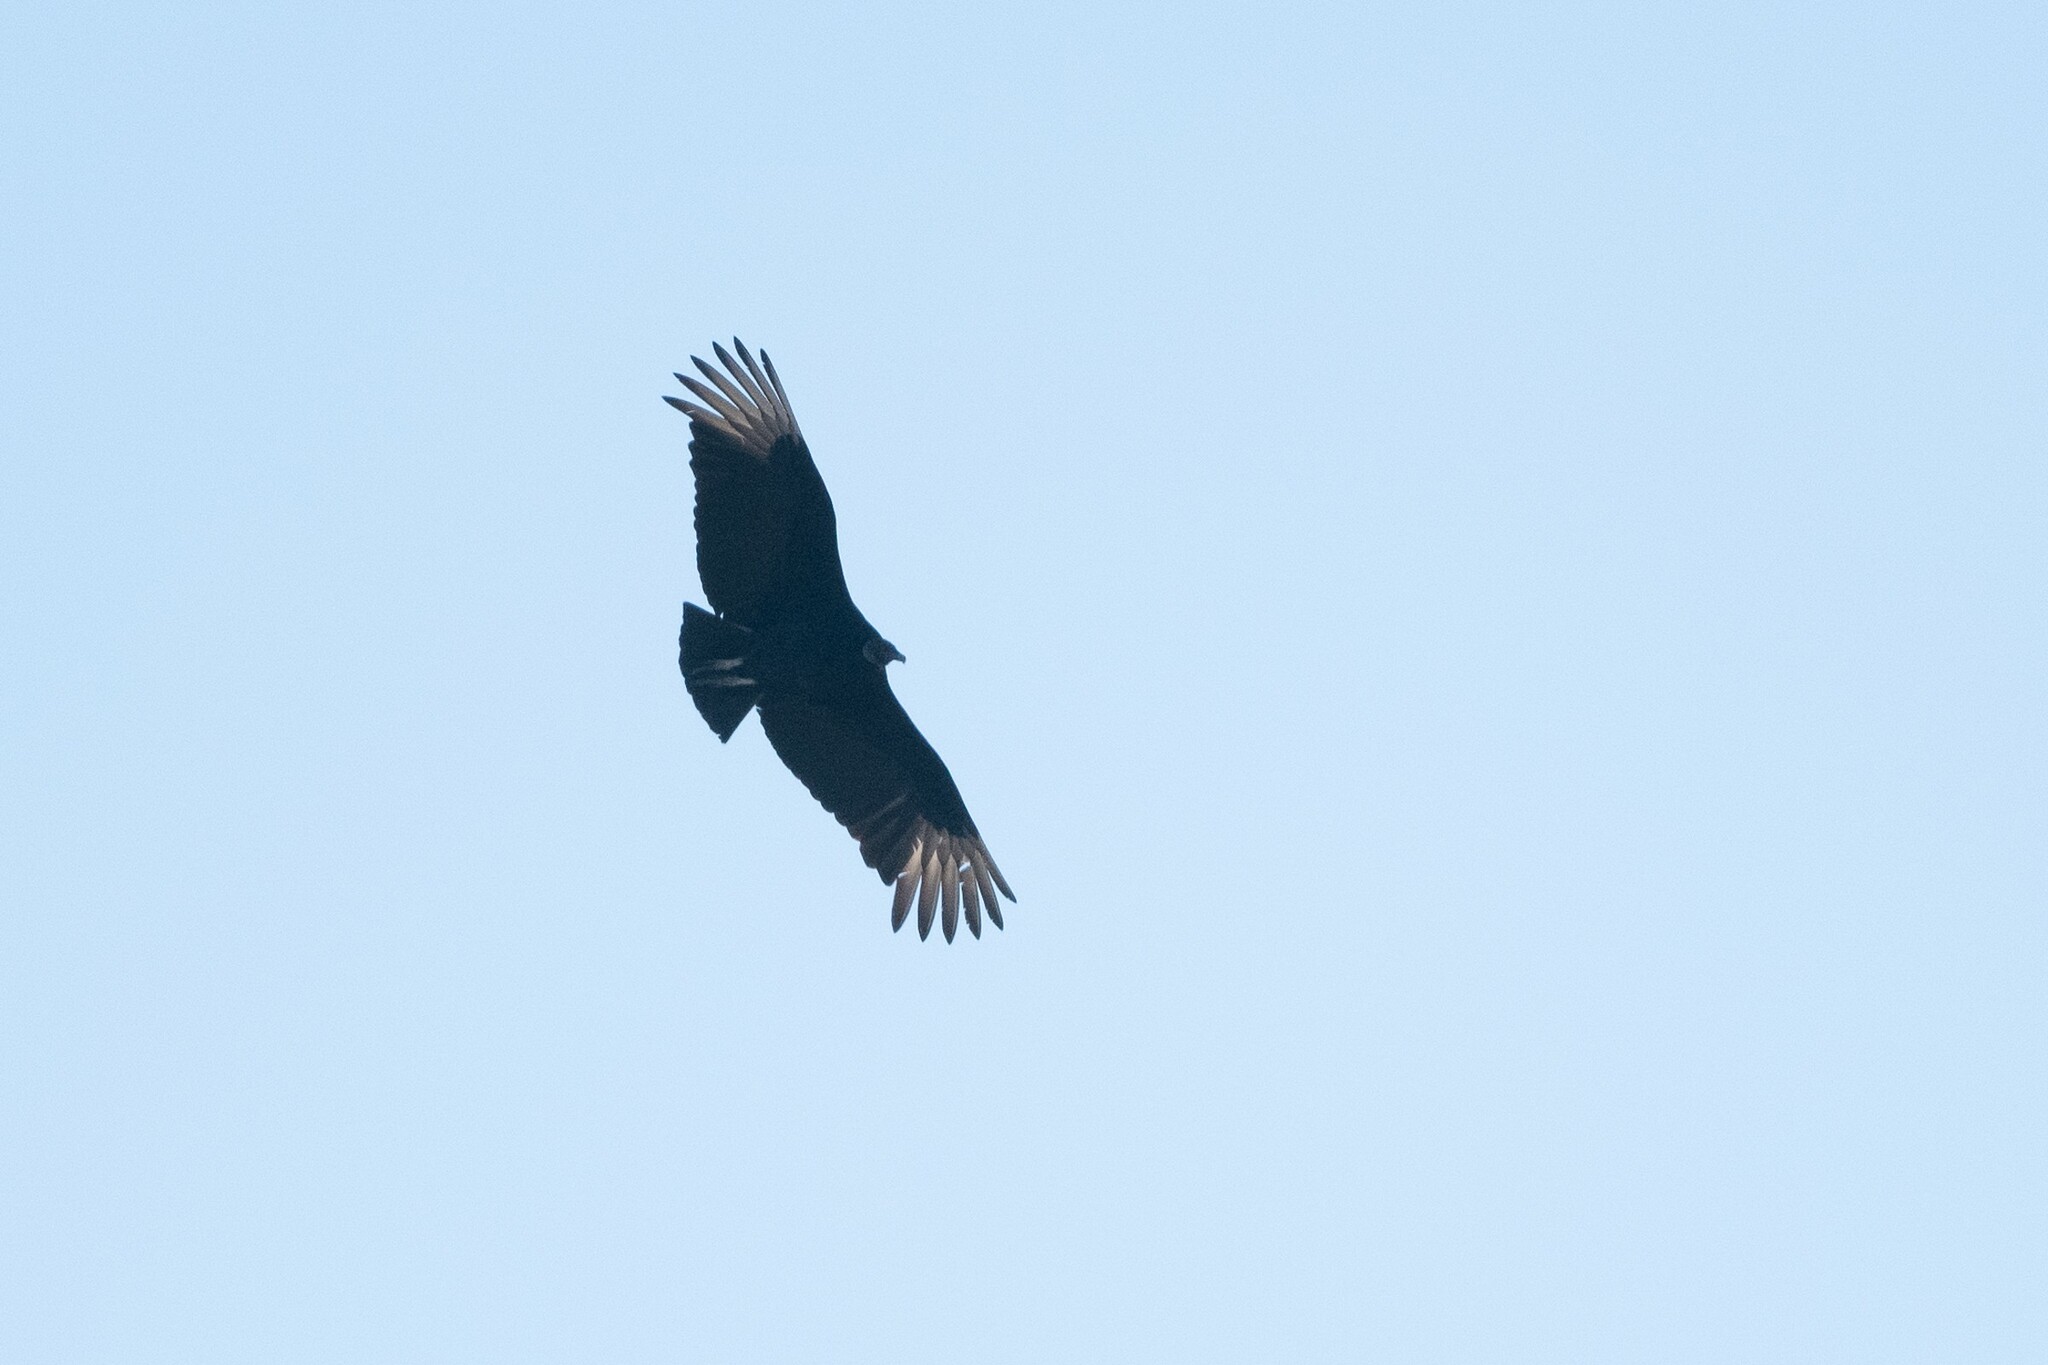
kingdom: Animalia
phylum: Chordata
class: Aves
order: Accipitriformes
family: Cathartidae
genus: Coragyps
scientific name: Coragyps atratus
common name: Black vulture
